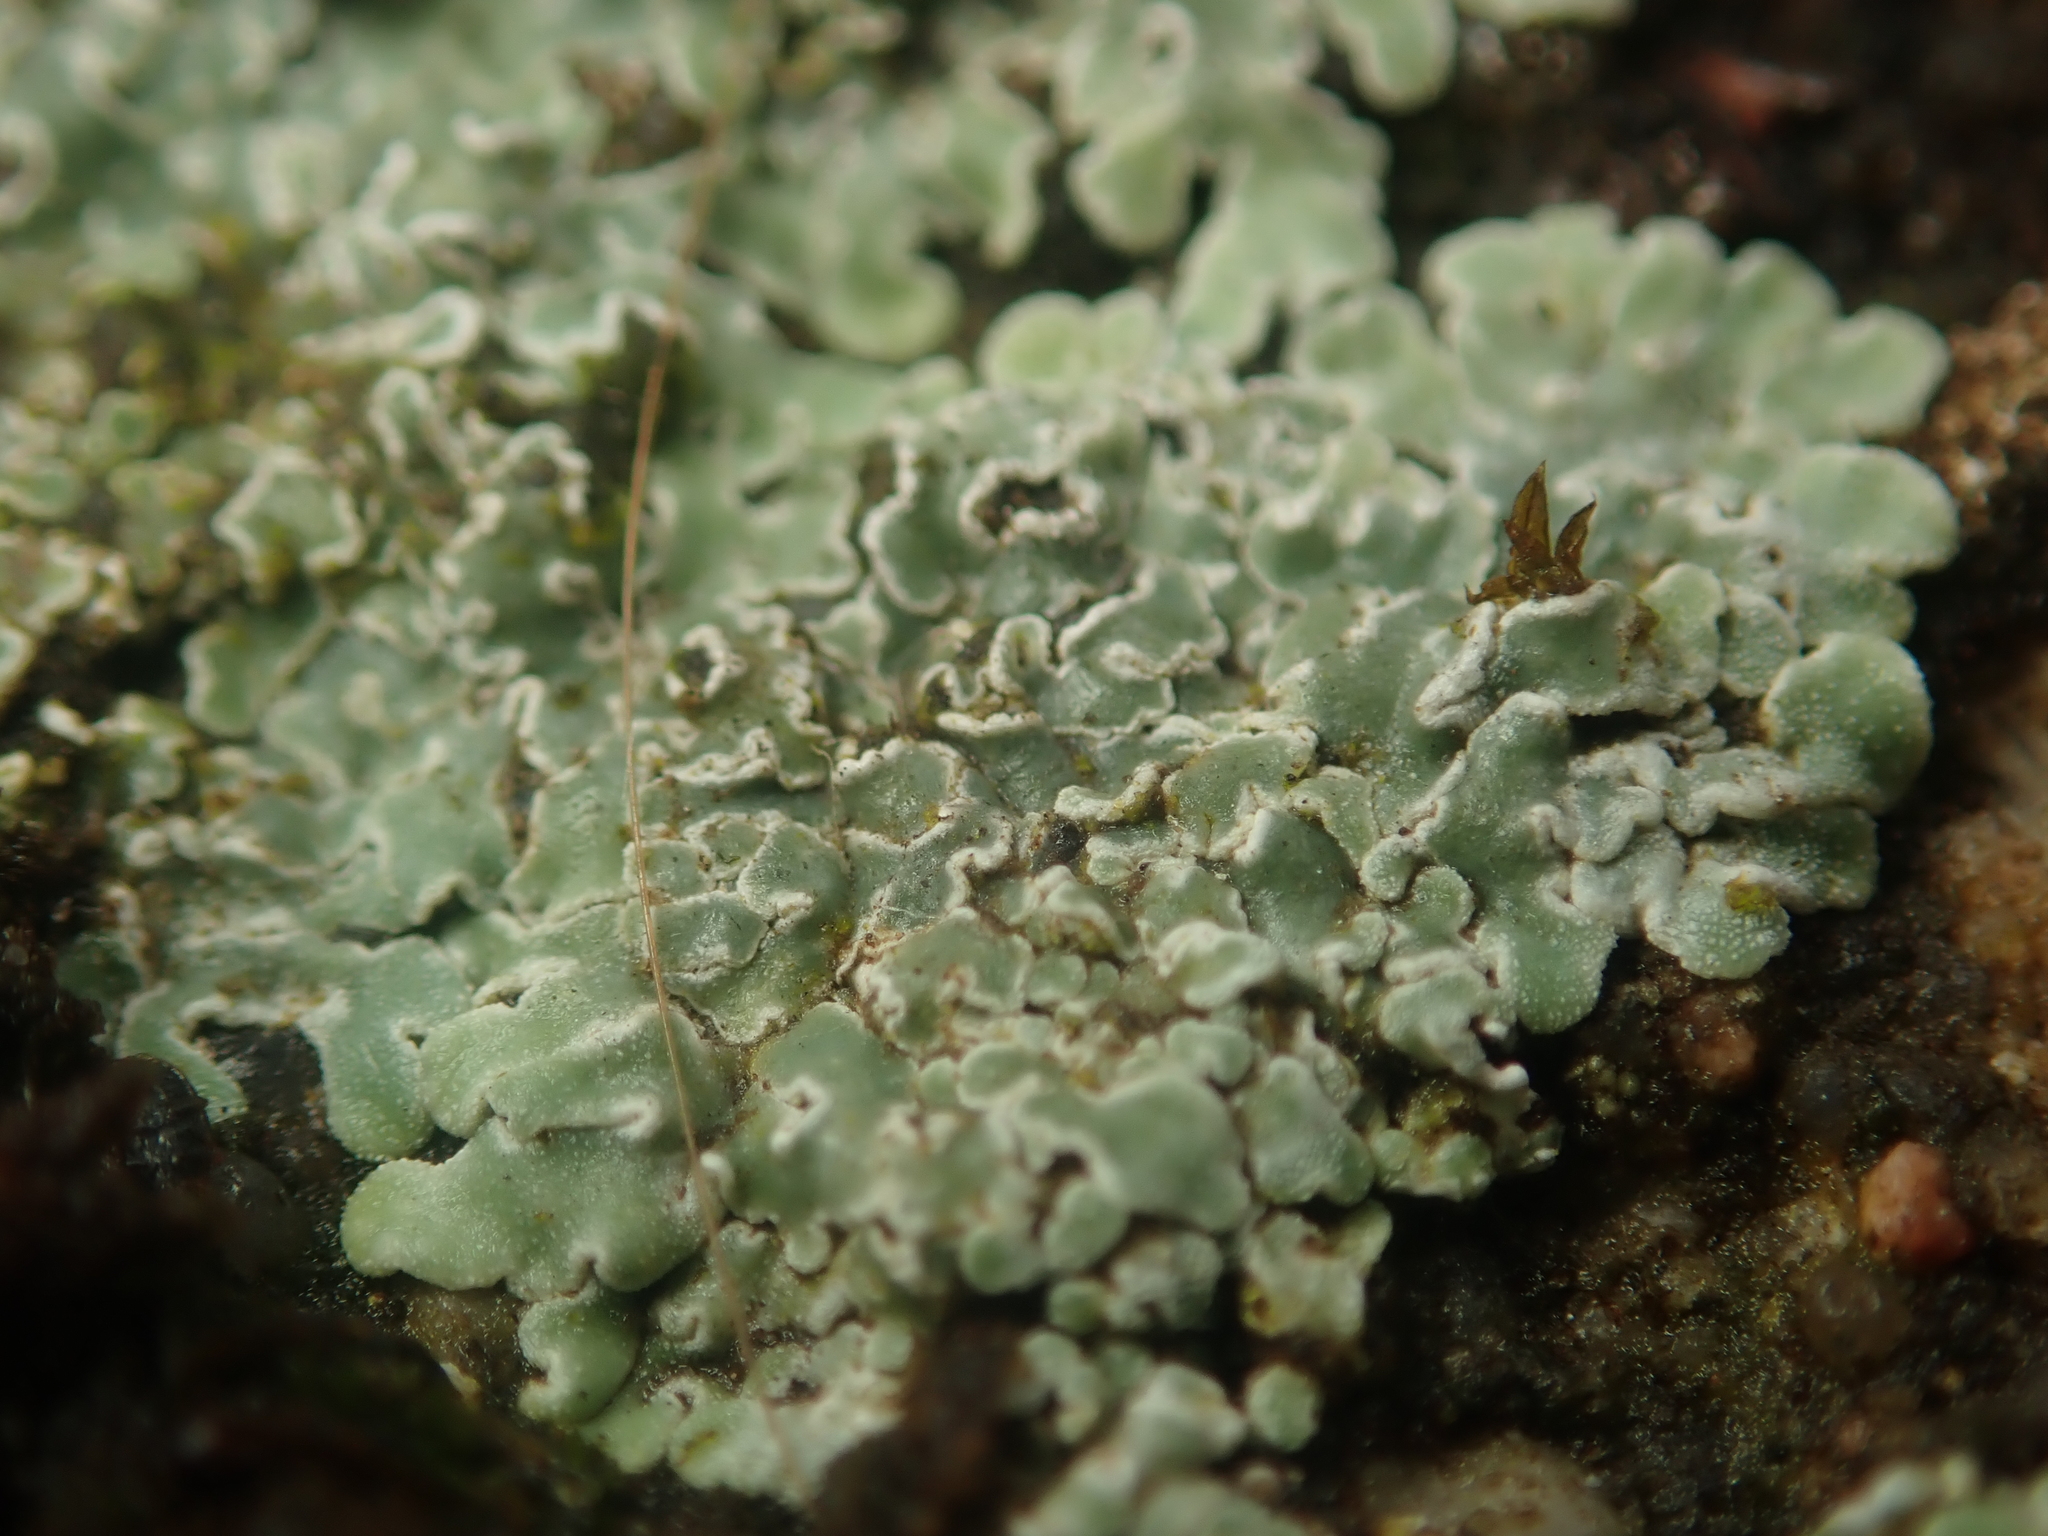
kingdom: Fungi
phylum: Ascomycota
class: Lecanoromycetes
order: Lecanorales
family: Lecanoraceae
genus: Protoparmeliopsis
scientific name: Protoparmeliopsis muralis
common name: Stonewall rim lichen
